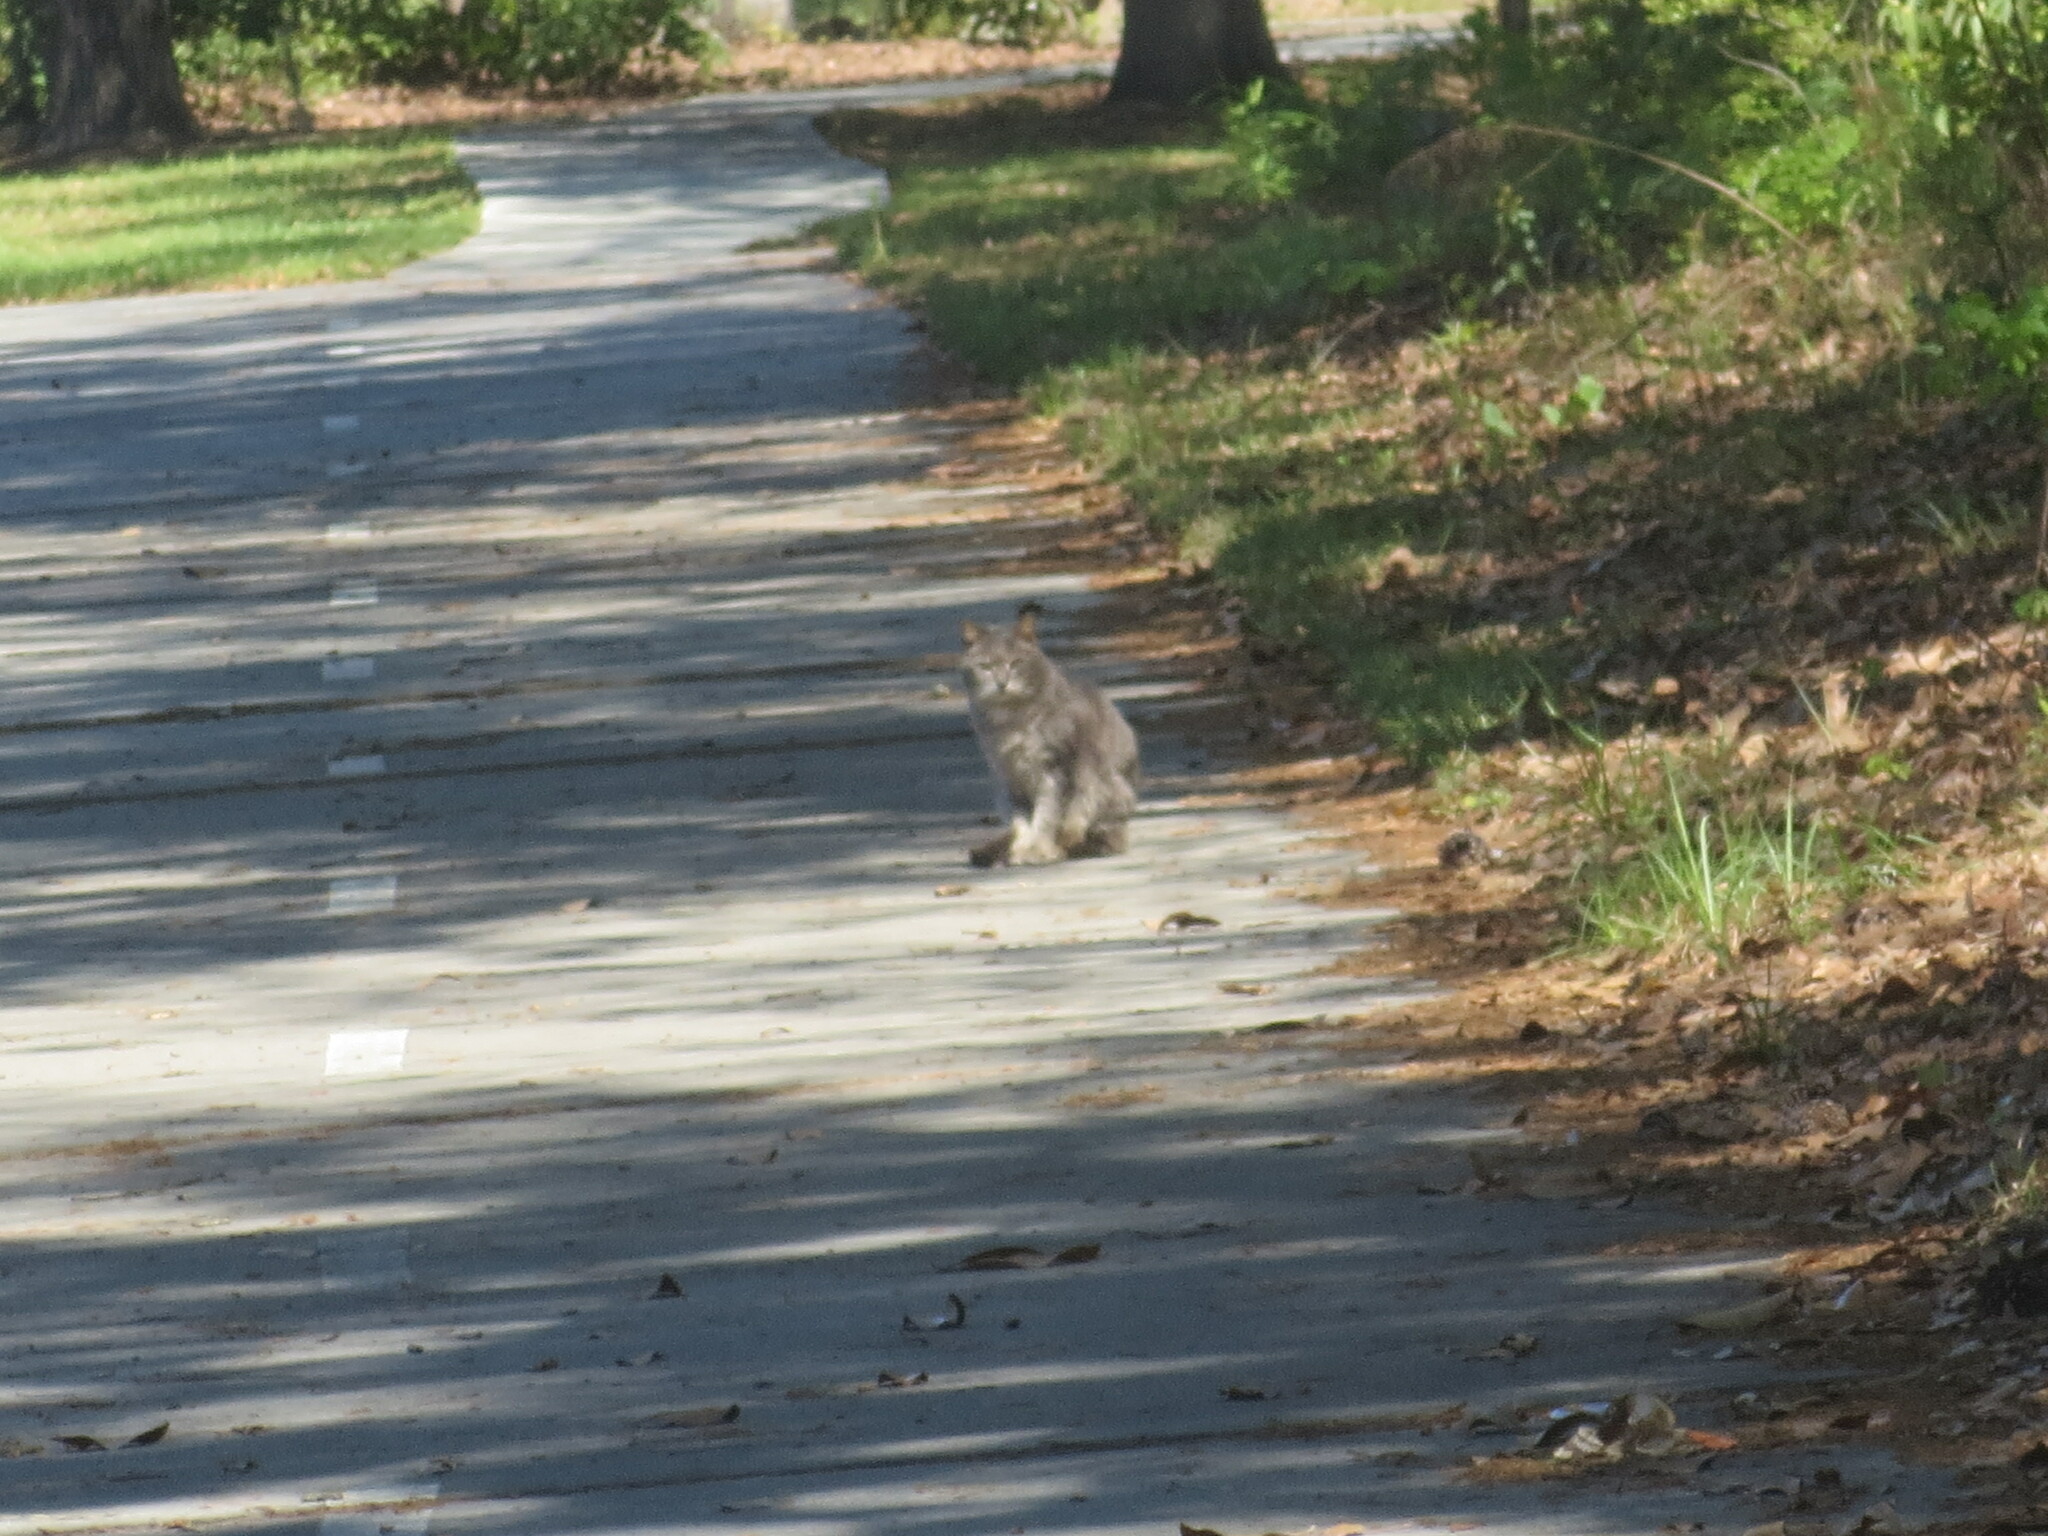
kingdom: Animalia
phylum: Chordata
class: Mammalia
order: Carnivora
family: Felidae
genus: Felis
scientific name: Felis catus
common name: Domestic cat
